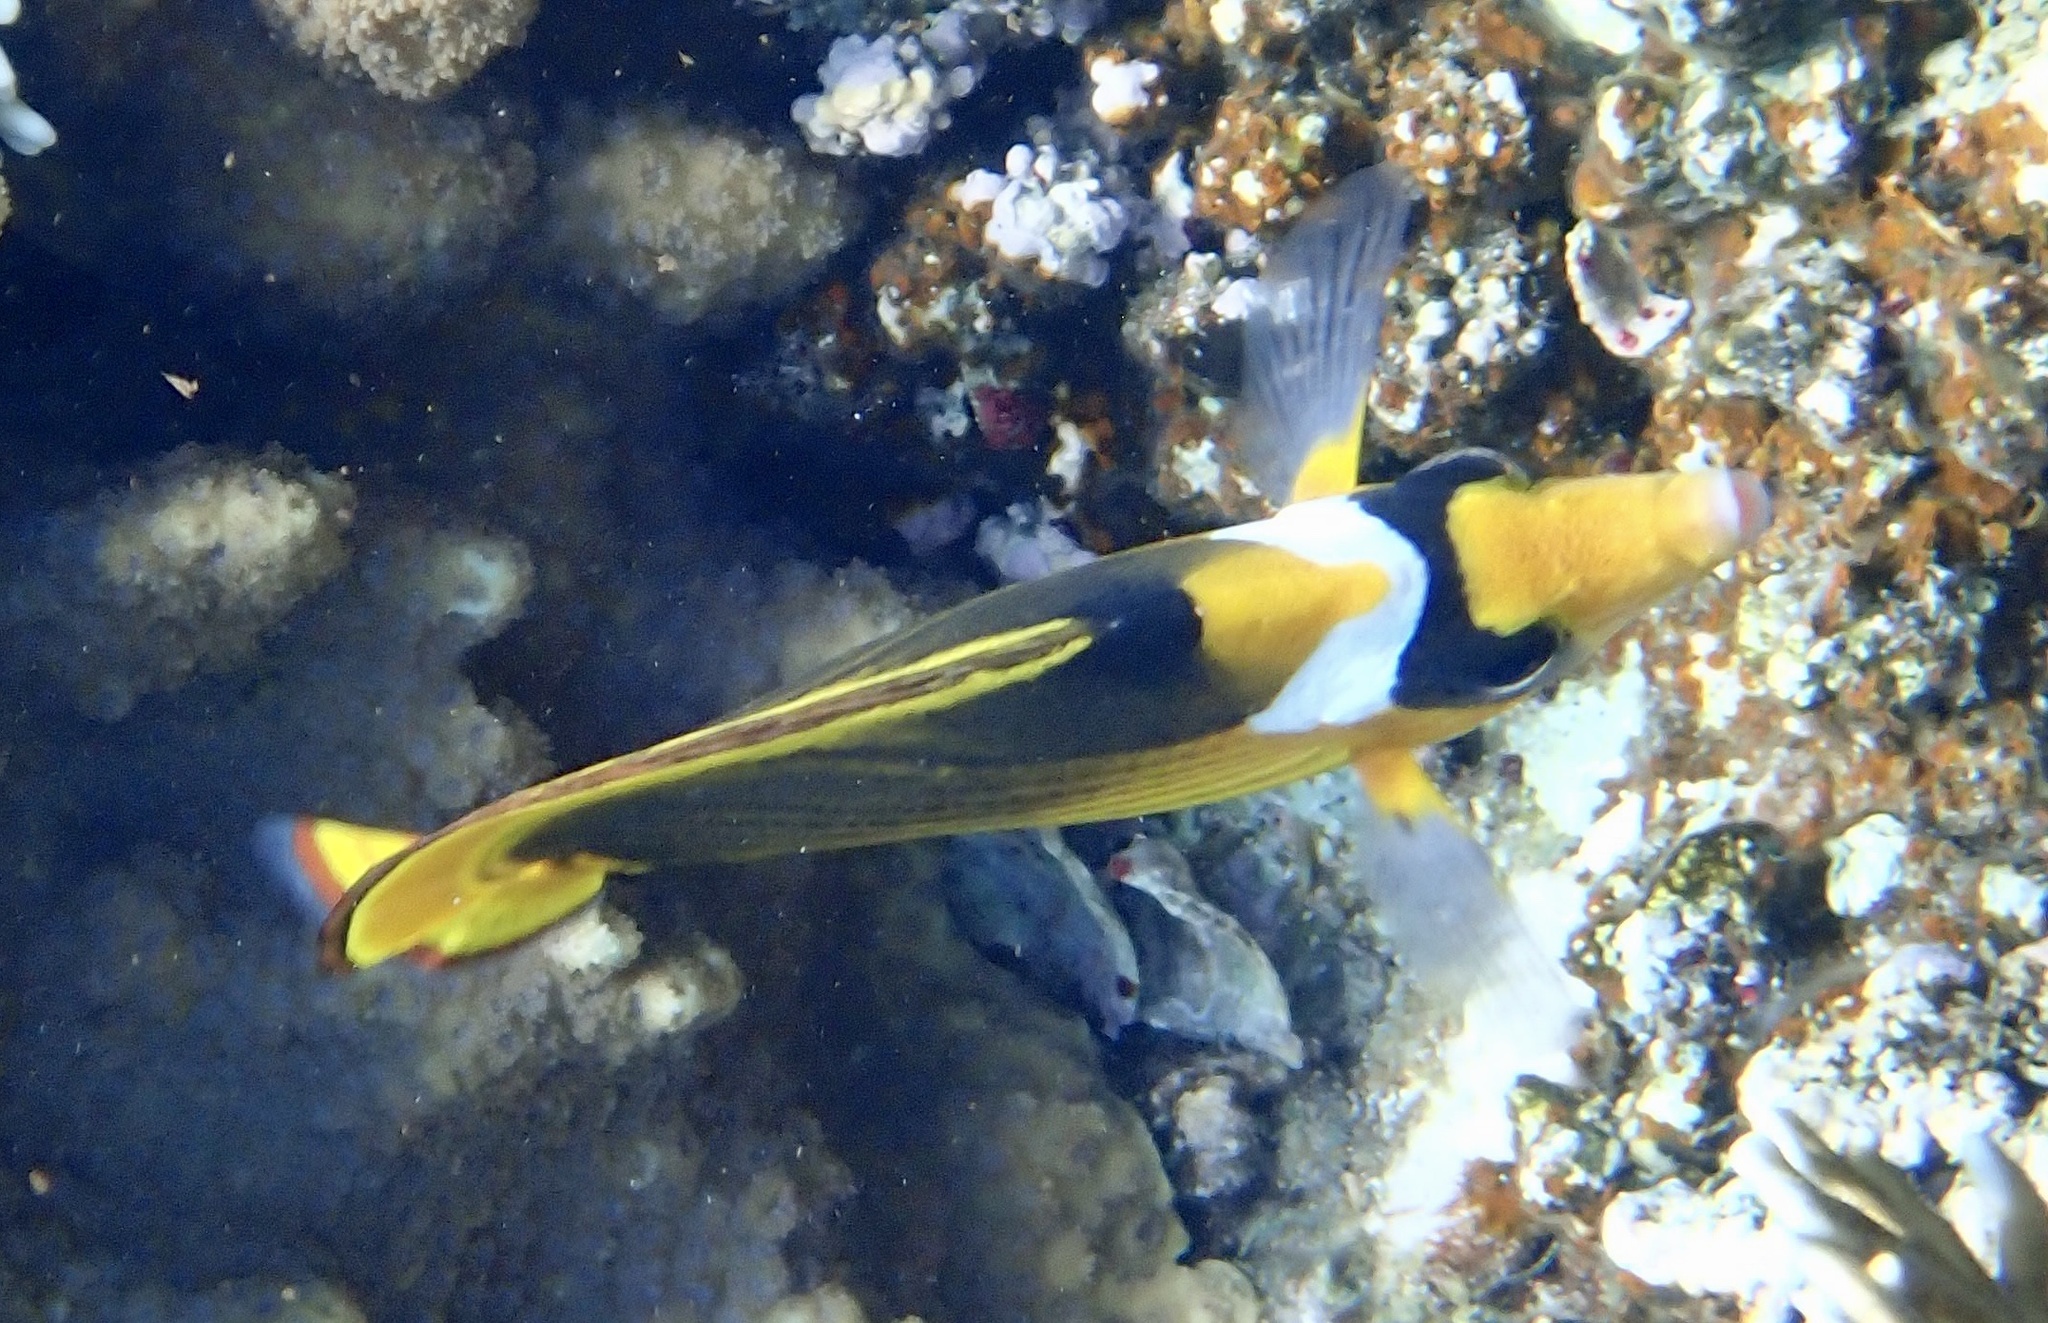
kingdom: Animalia
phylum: Chordata
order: Perciformes
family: Chaetodontidae
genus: Chaetodon
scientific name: Chaetodon fasciatus
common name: Diagonal butterflyfish
